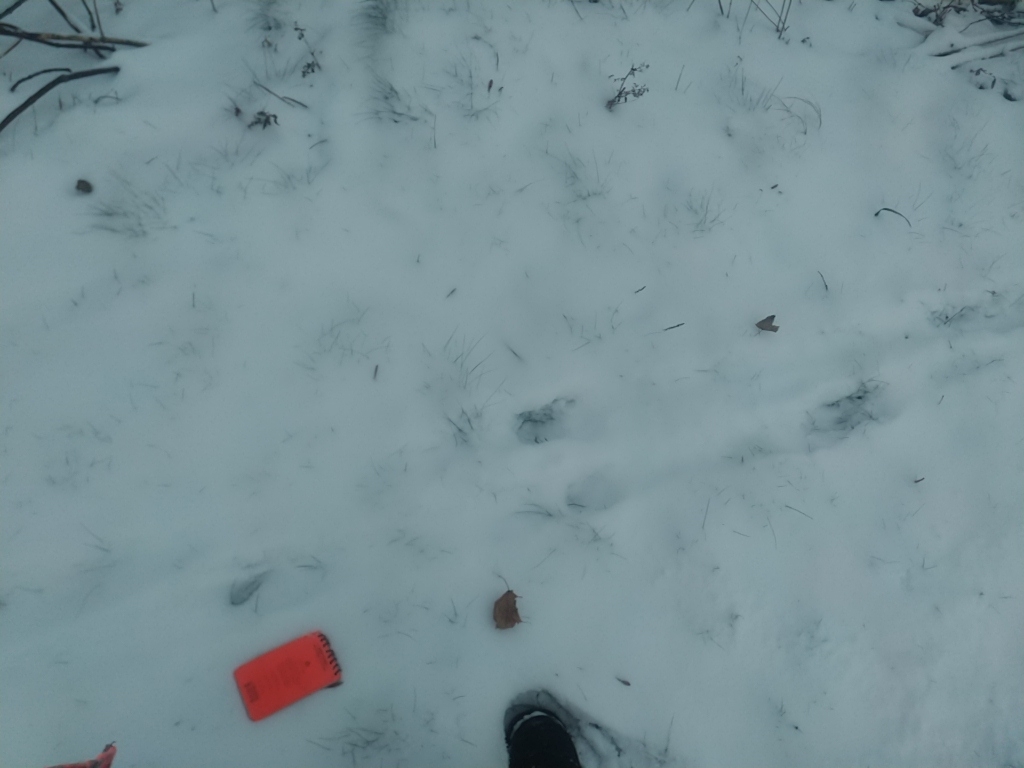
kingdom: Animalia
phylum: Chordata
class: Mammalia
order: Artiodactyla
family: Cervidae
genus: Odocoileus
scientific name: Odocoileus virginianus
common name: White-tailed deer
